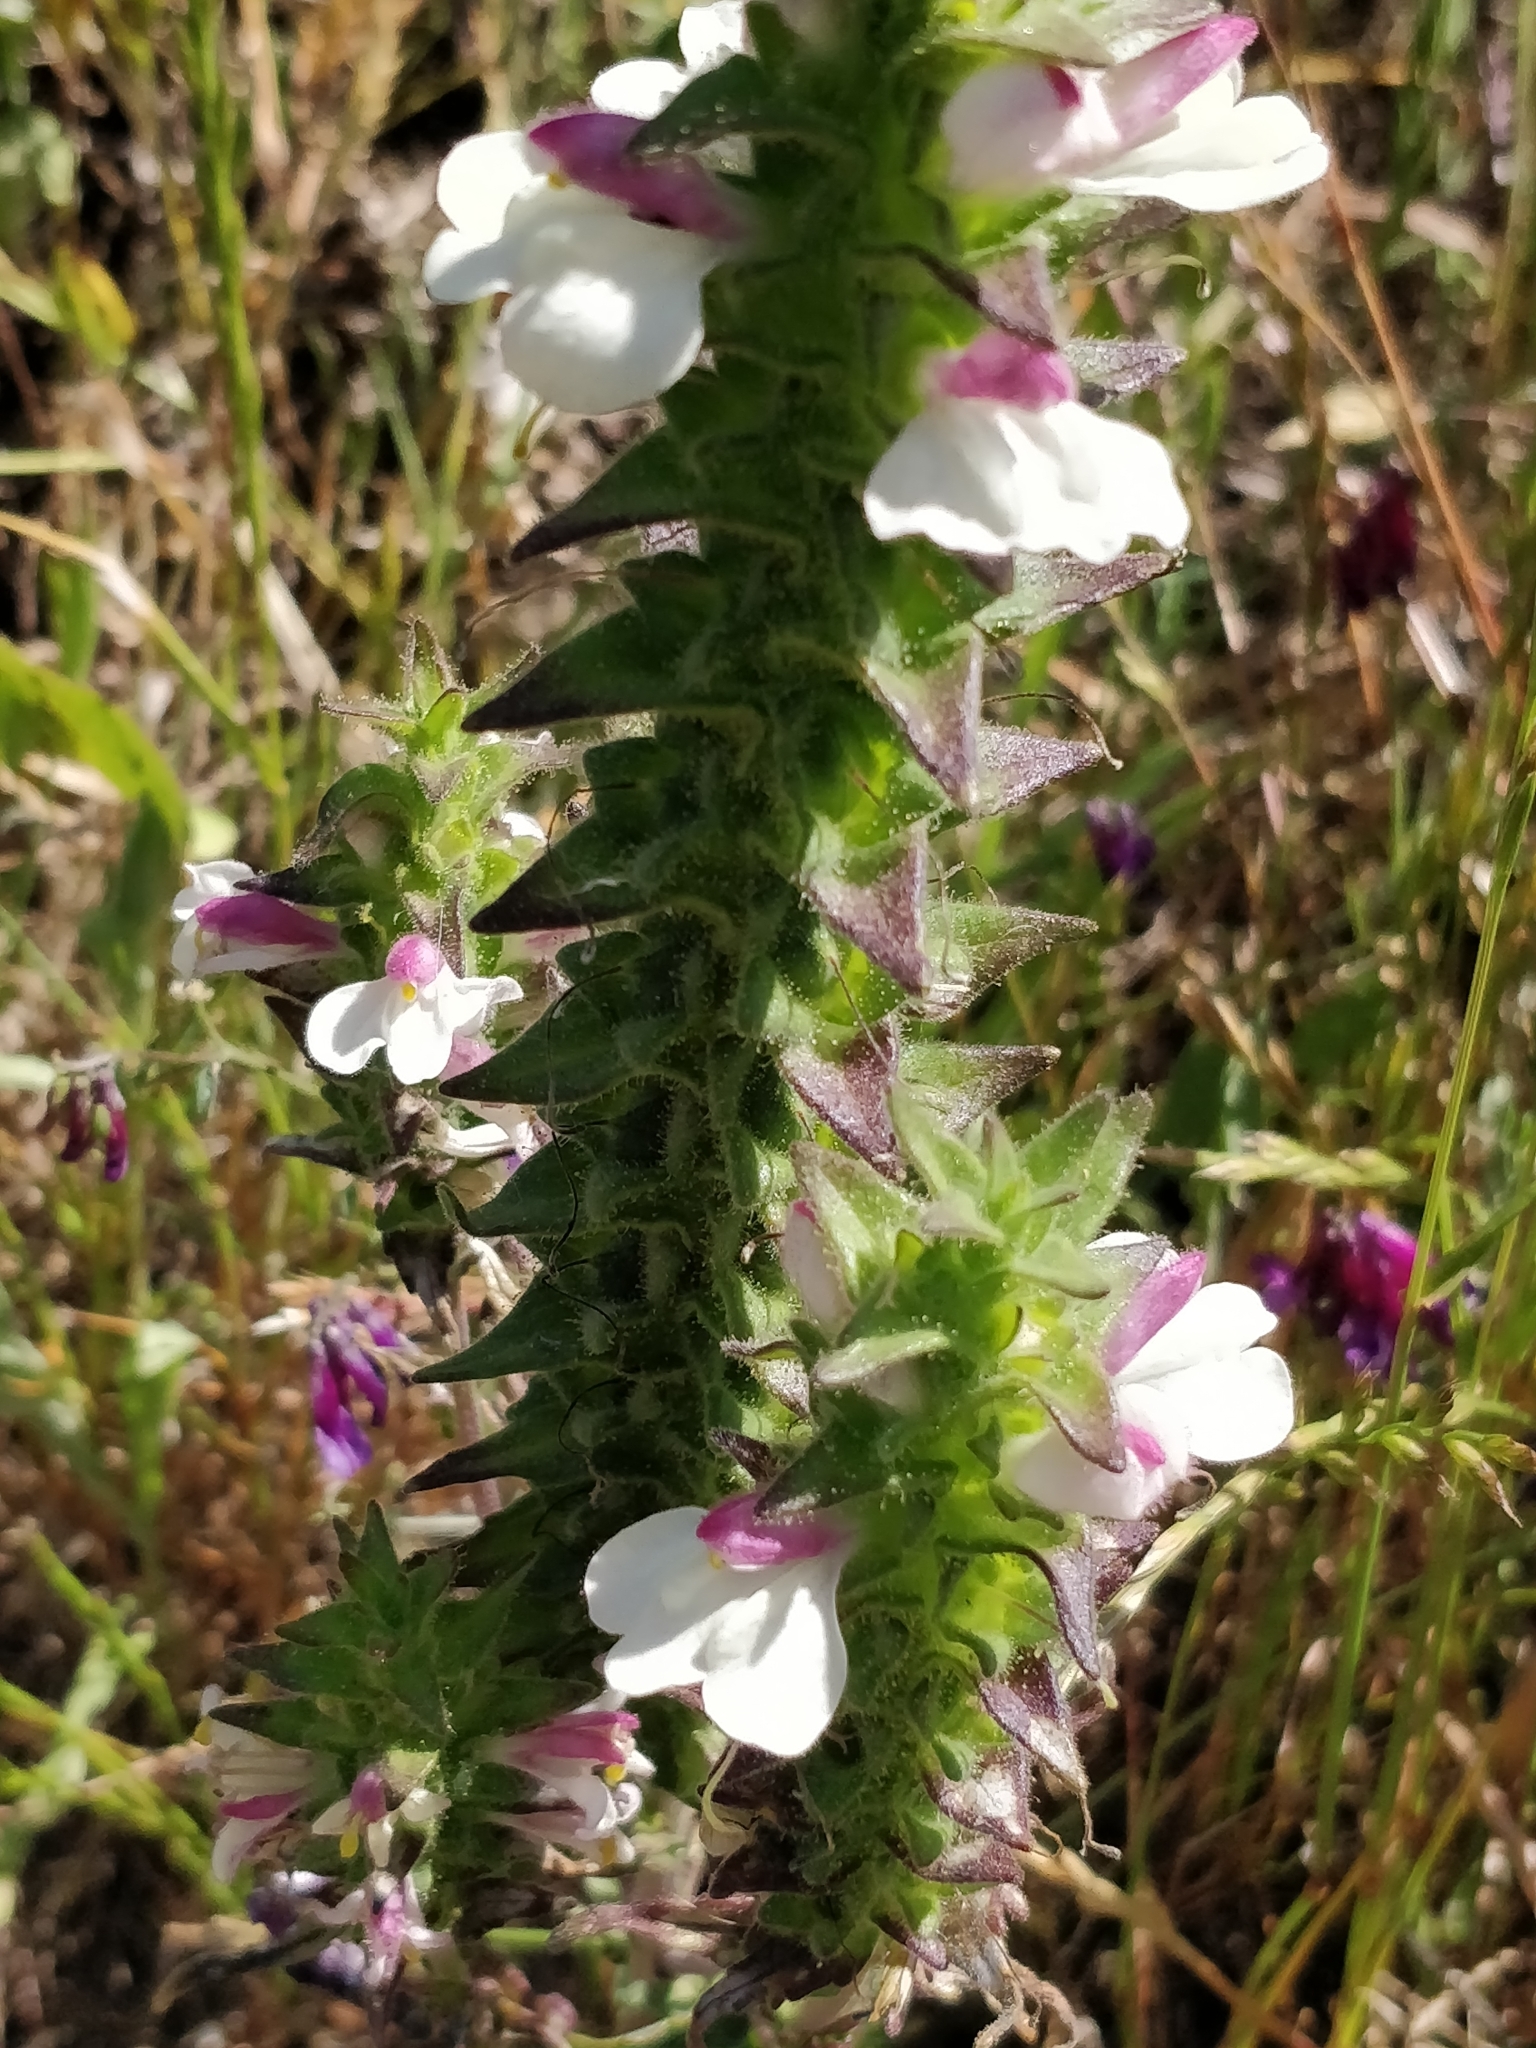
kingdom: Plantae
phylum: Tracheophyta
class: Magnoliopsida
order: Lamiales
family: Orobanchaceae
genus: Bellardia
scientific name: Bellardia trixago
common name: Mediterranean lineseed
